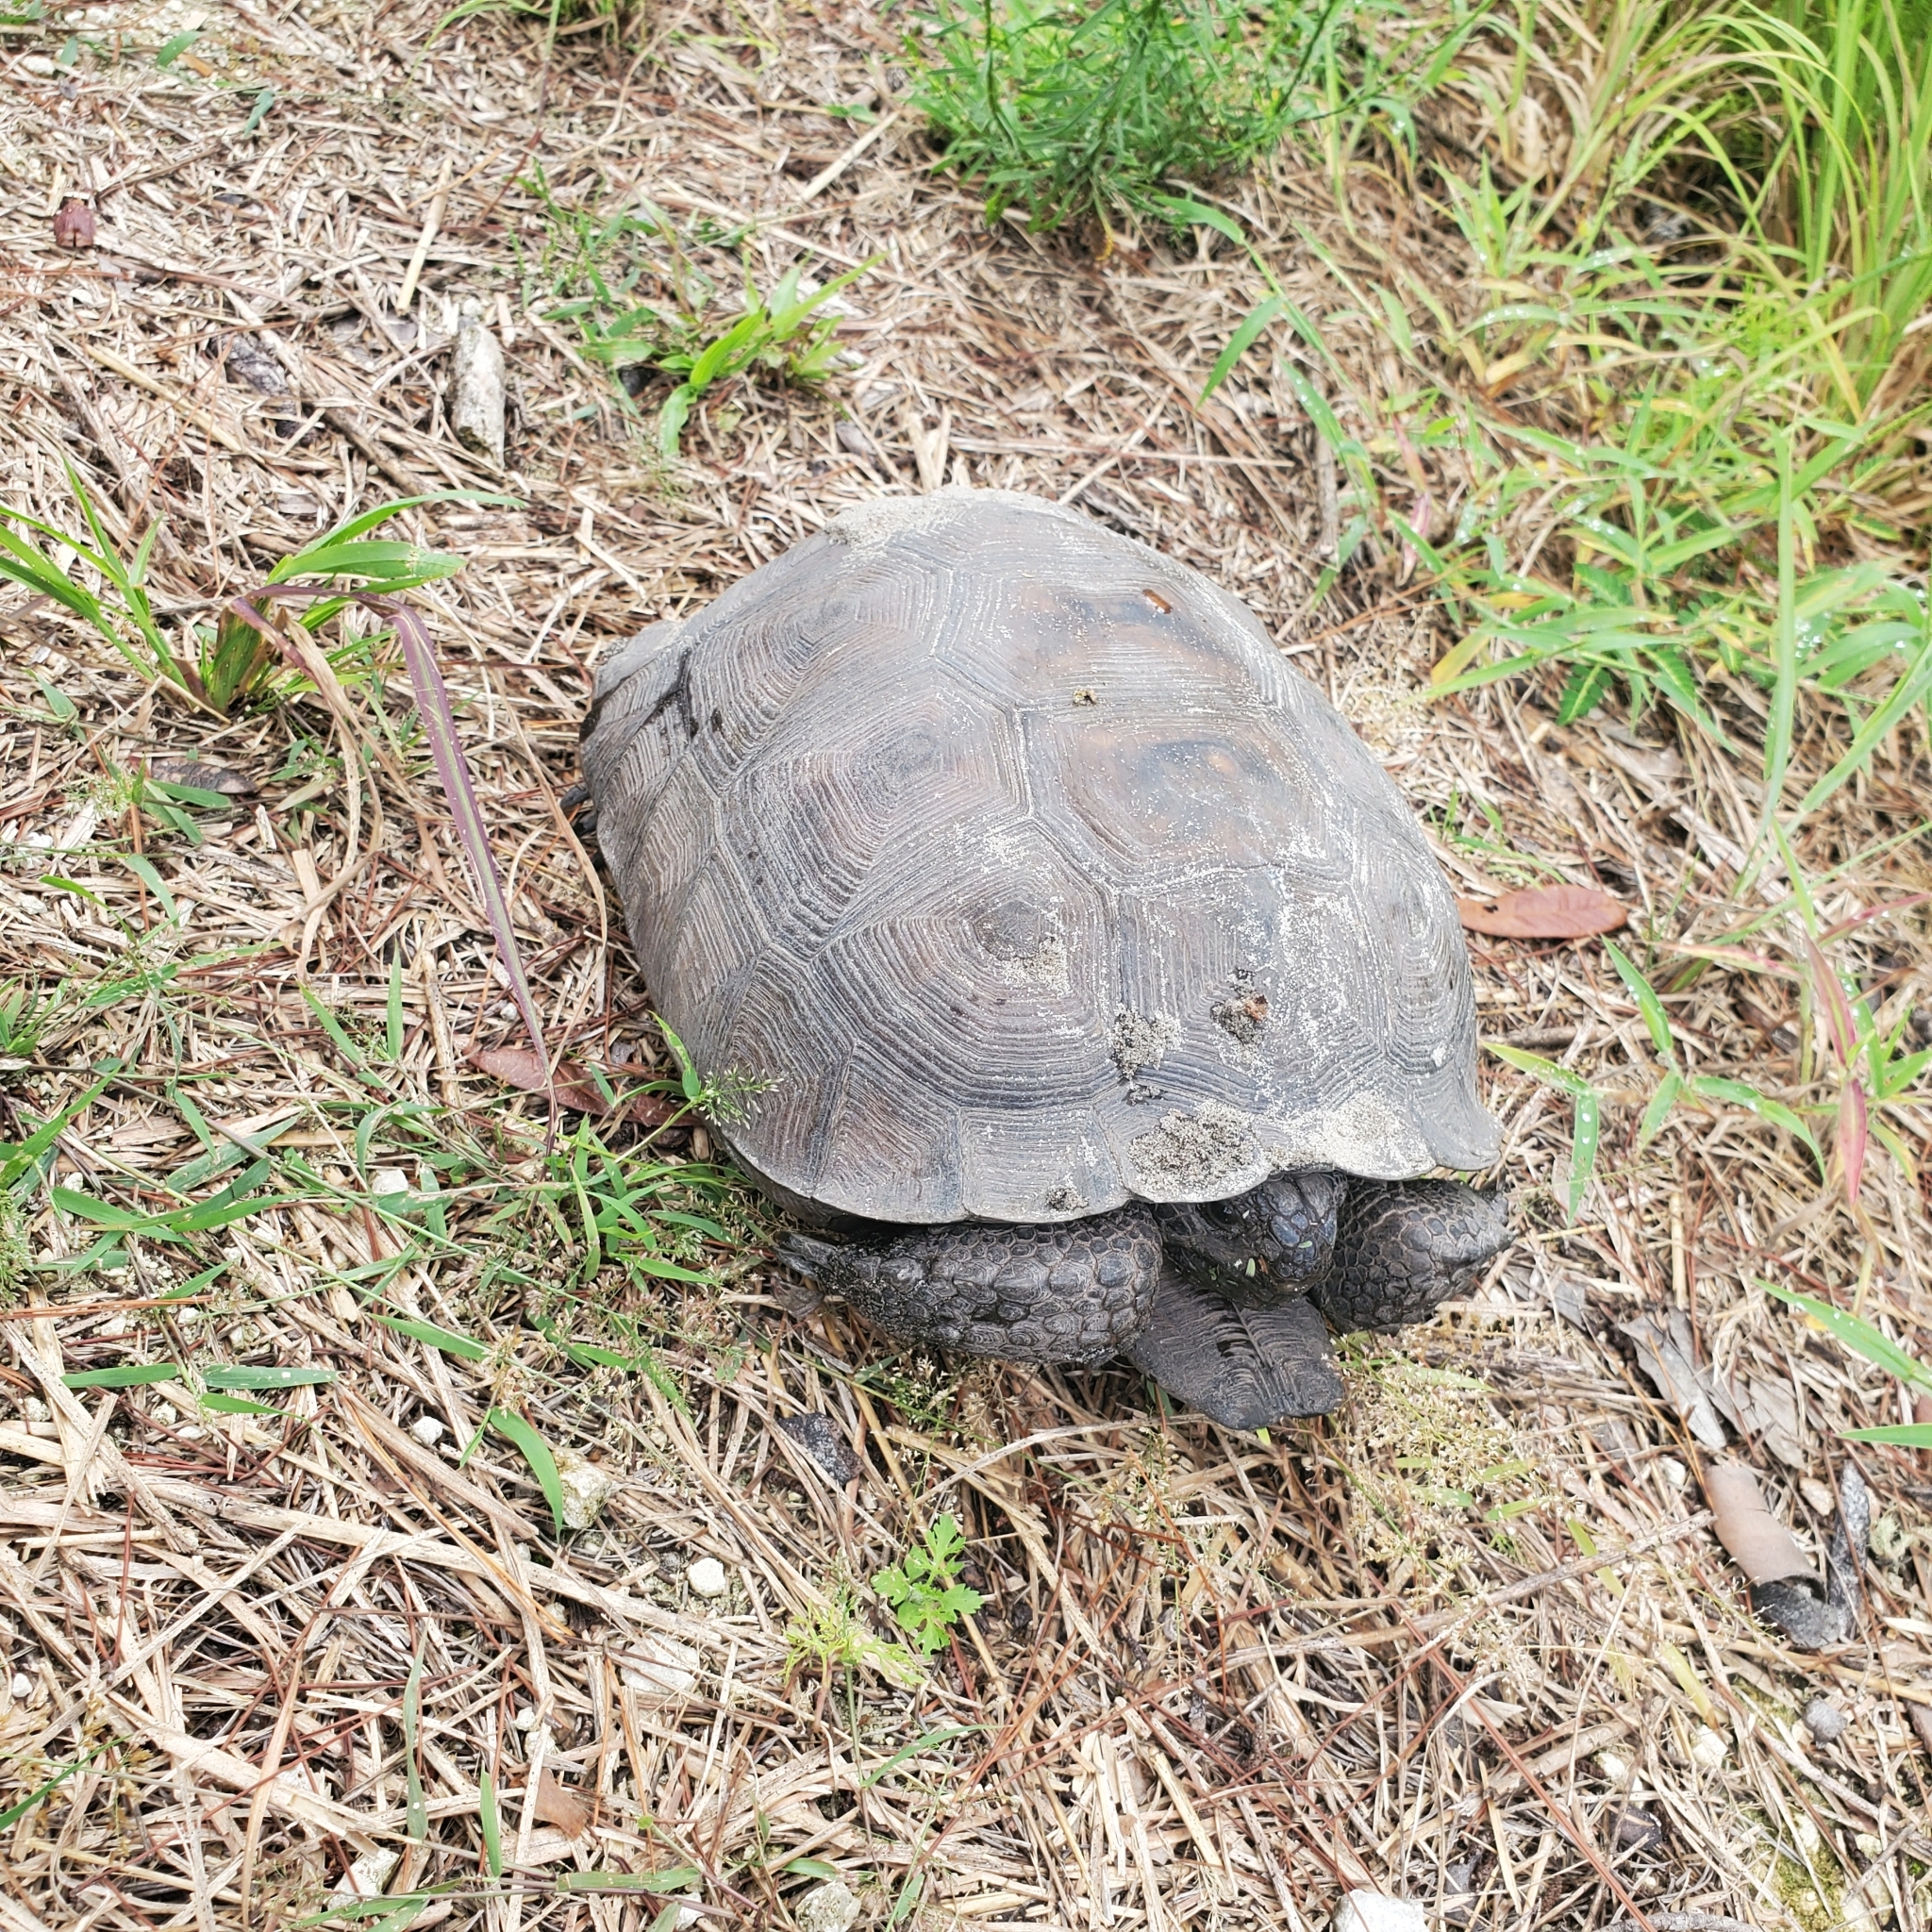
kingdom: Animalia
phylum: Chordata
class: Testudines
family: Testudinidae
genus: Gopherus
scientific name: Gopherus polyphemus
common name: Florida gopher tortoise
